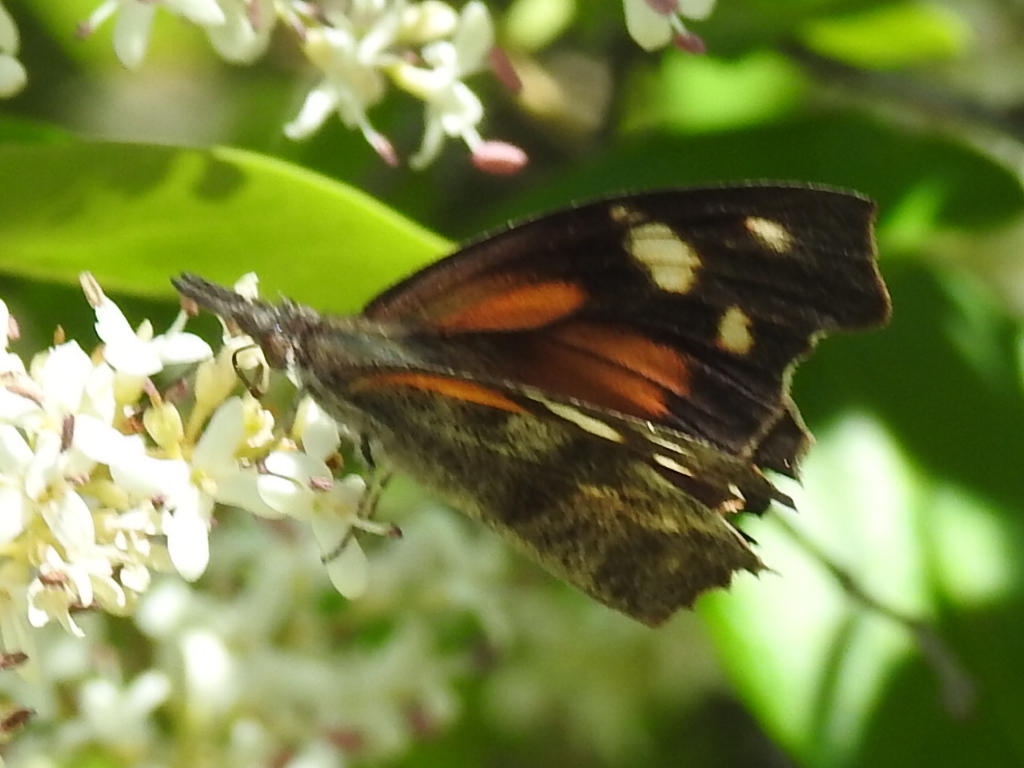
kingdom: Animalia
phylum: Arthropoda
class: Insecta
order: Lepidoptera
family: Nymphalidae
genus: Libytheana
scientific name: Libytheana carinenta
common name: American snout
